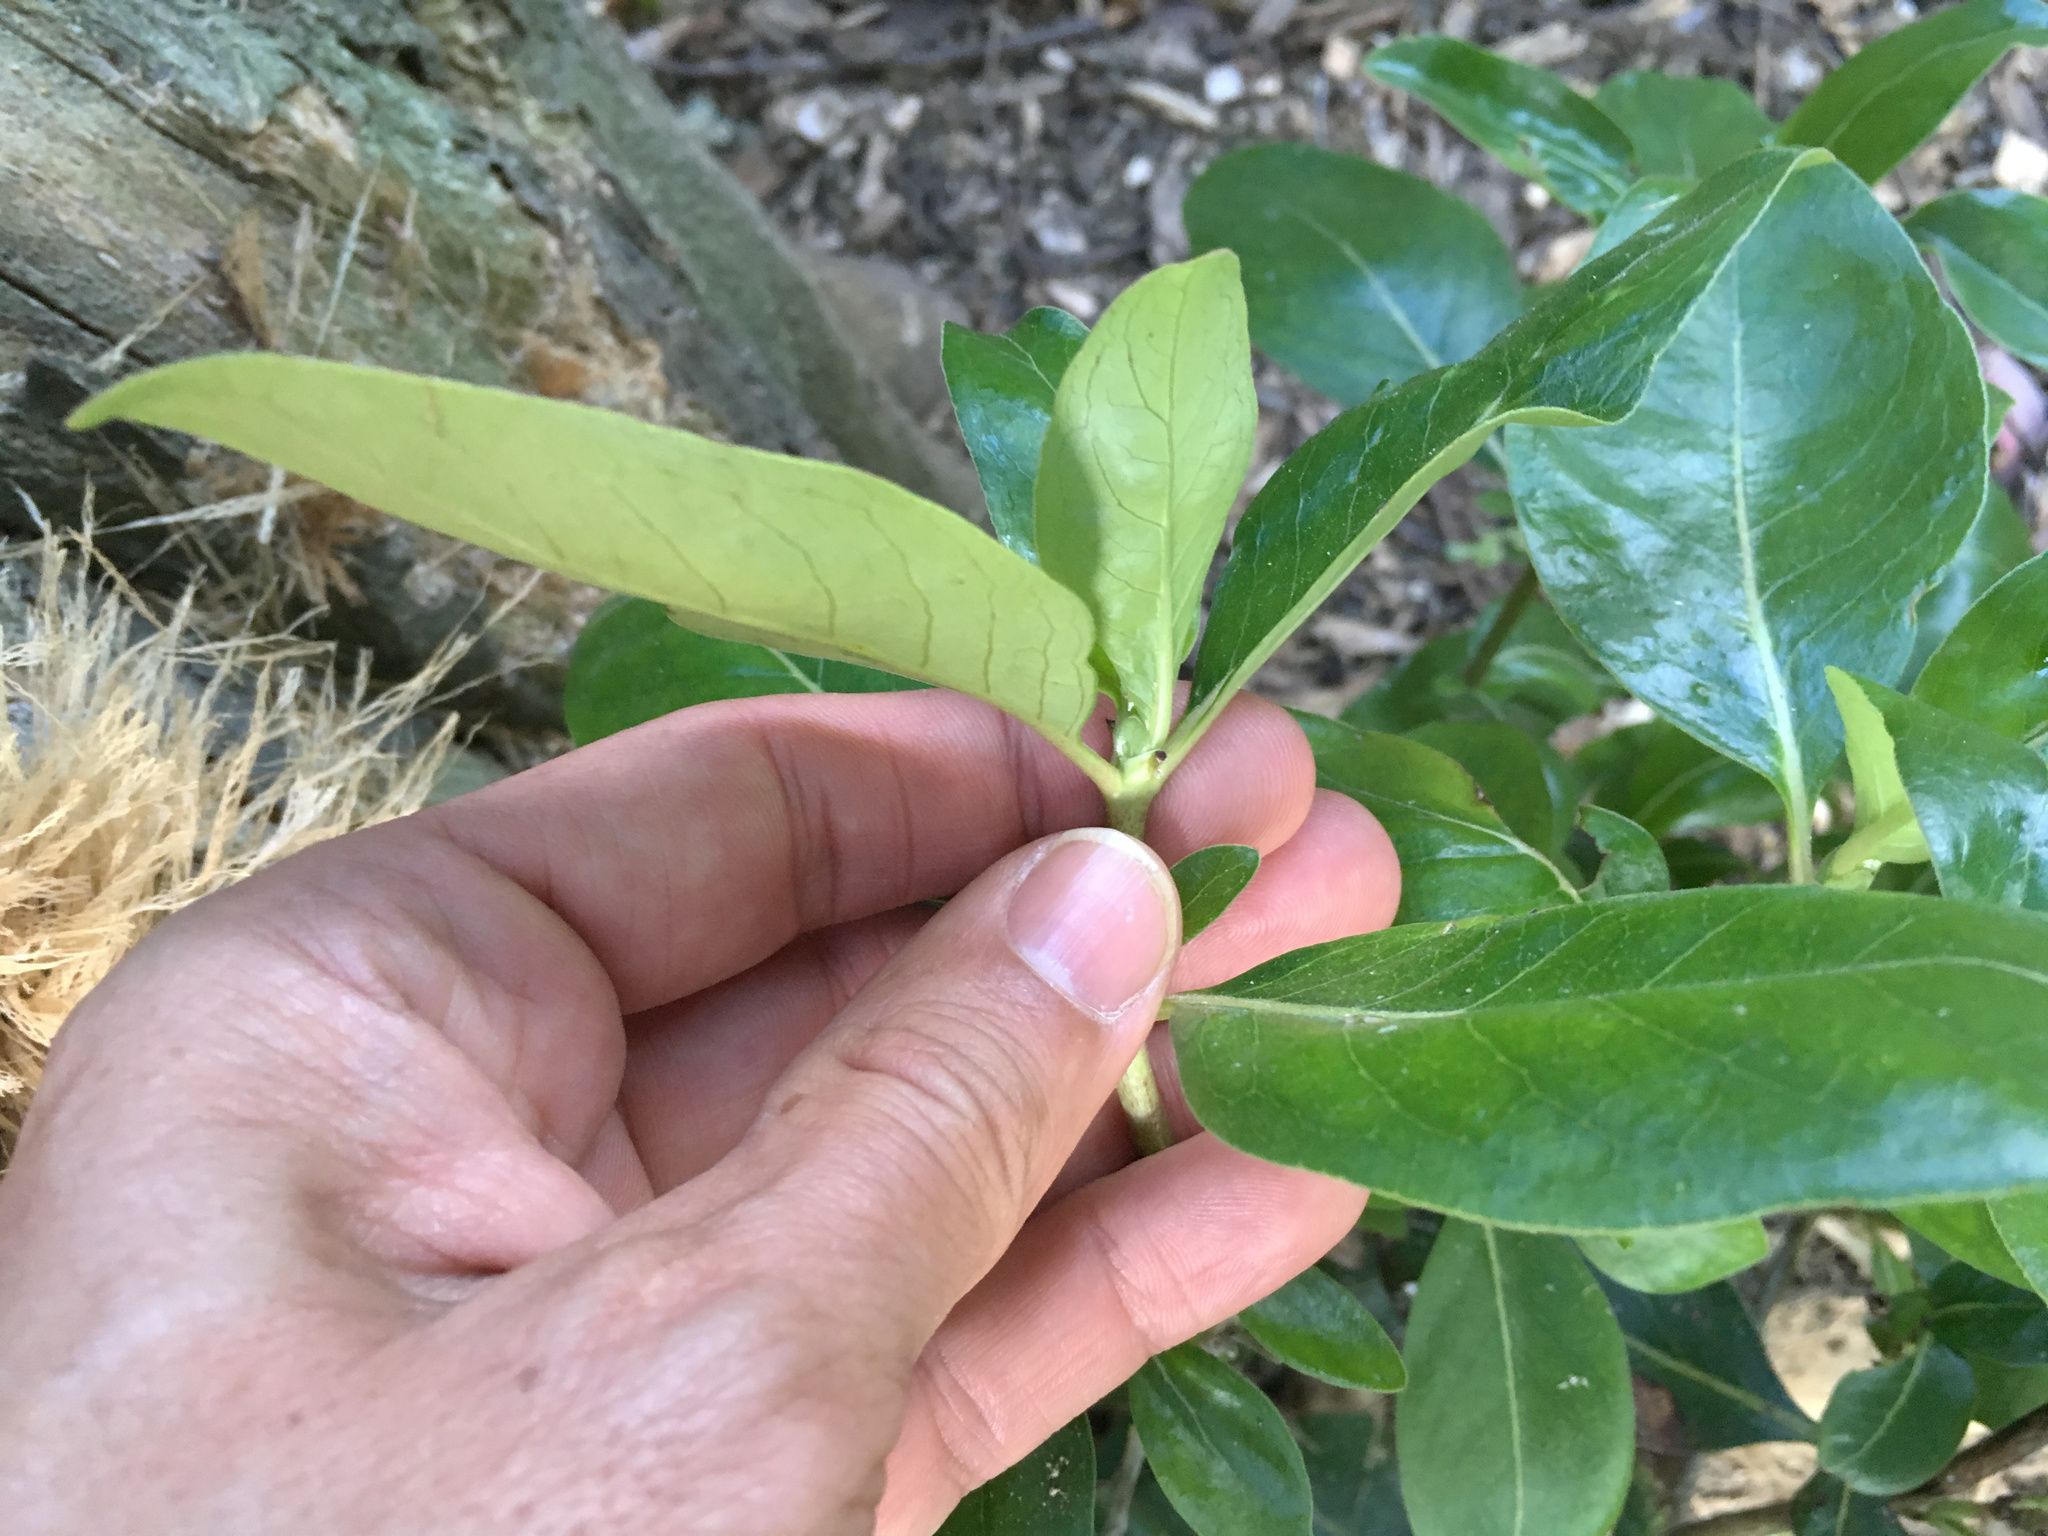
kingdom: Plantae
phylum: Tracheophyta
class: Magnoliopsida
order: Gentianales
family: Rubiaceae
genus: Coprosma
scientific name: Coprosma robusta
